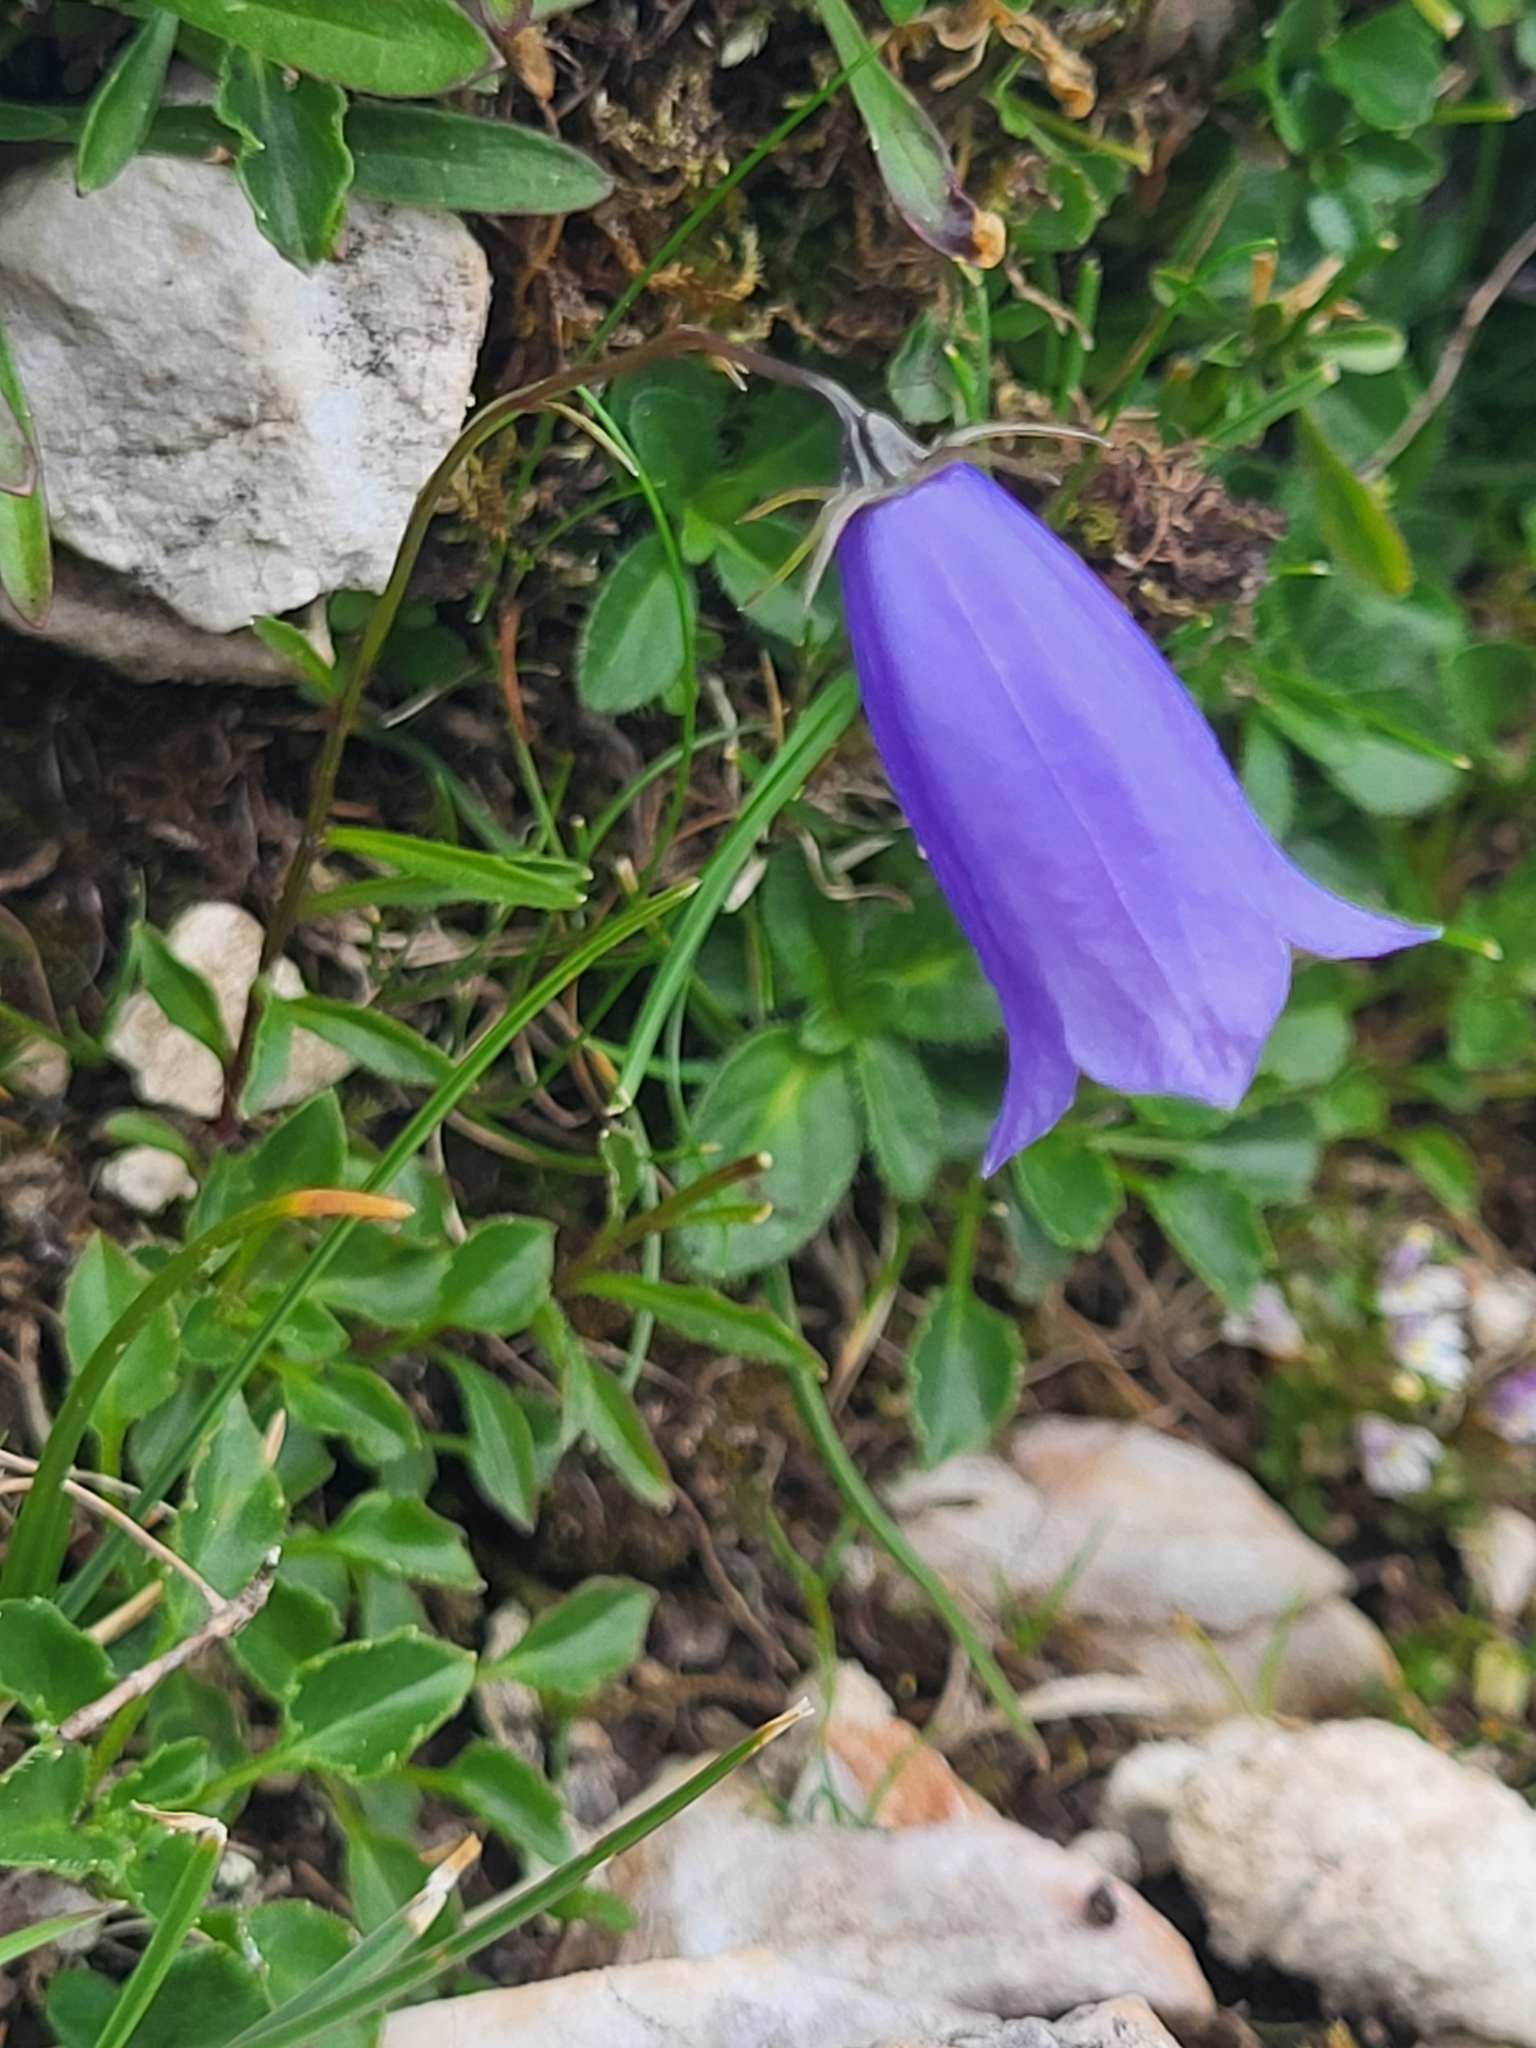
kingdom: Plantae
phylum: Tracheophyta
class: Magnoliopsida
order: Asterales
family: Campanulaceae
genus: Campanula
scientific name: Campanula cochleariifolia
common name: Fairies'-thimbles
